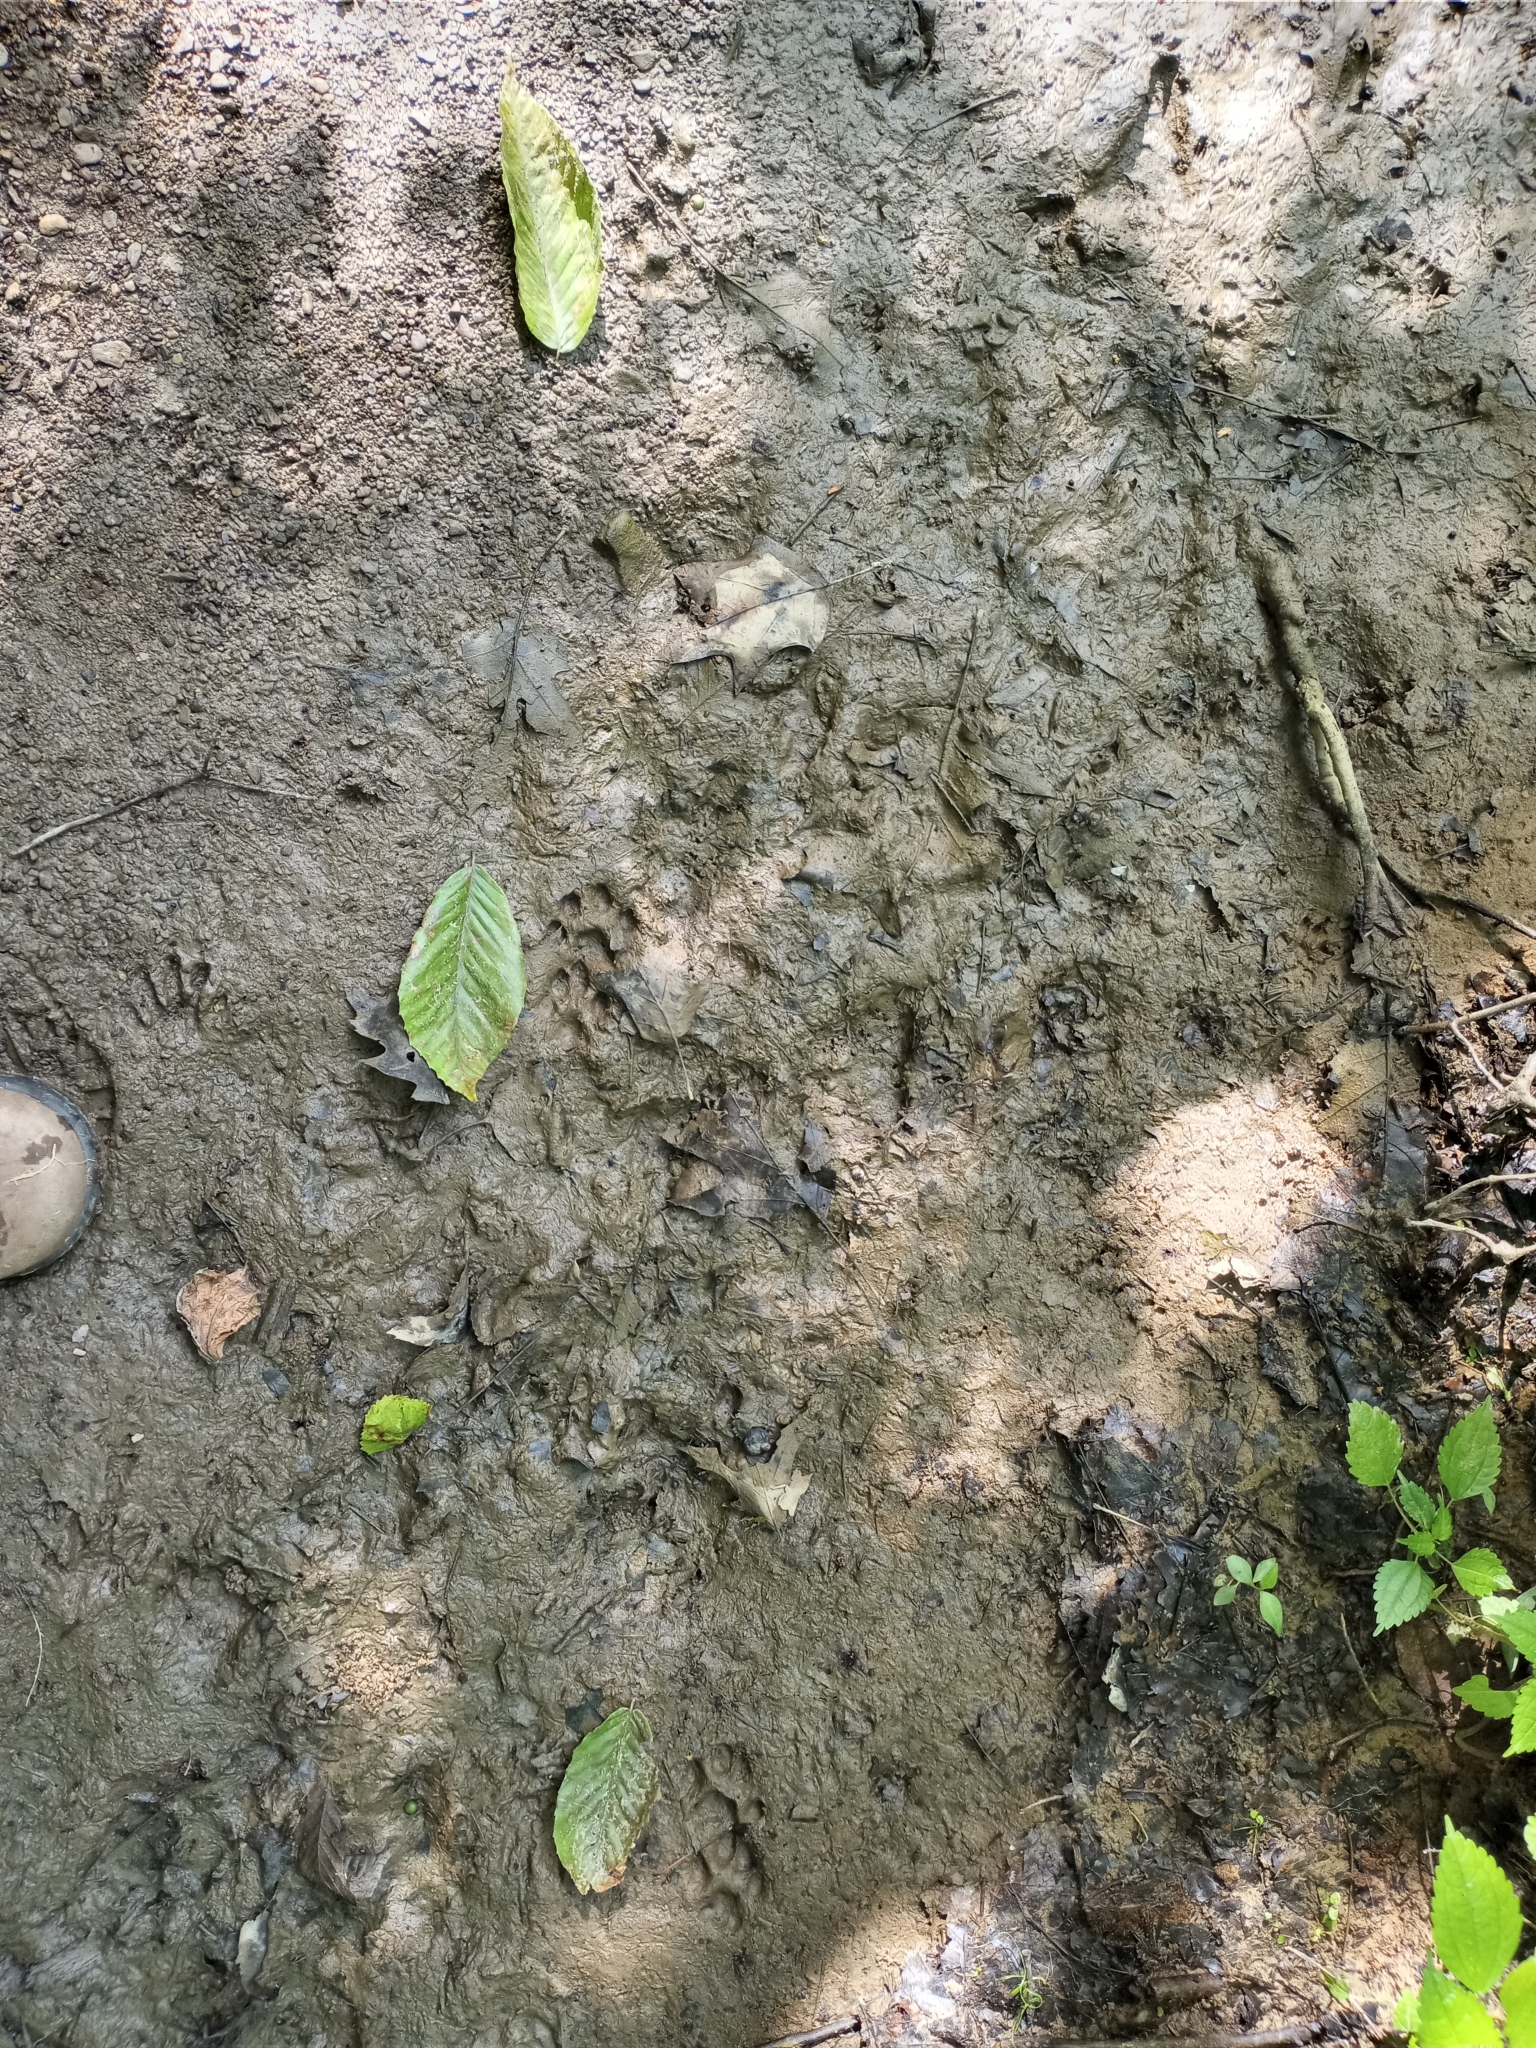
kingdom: Animalia
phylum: Chordata
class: Mammalia
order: Carnivora
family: Felidae
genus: Felis
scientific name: Felis catus
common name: Domestic cat
